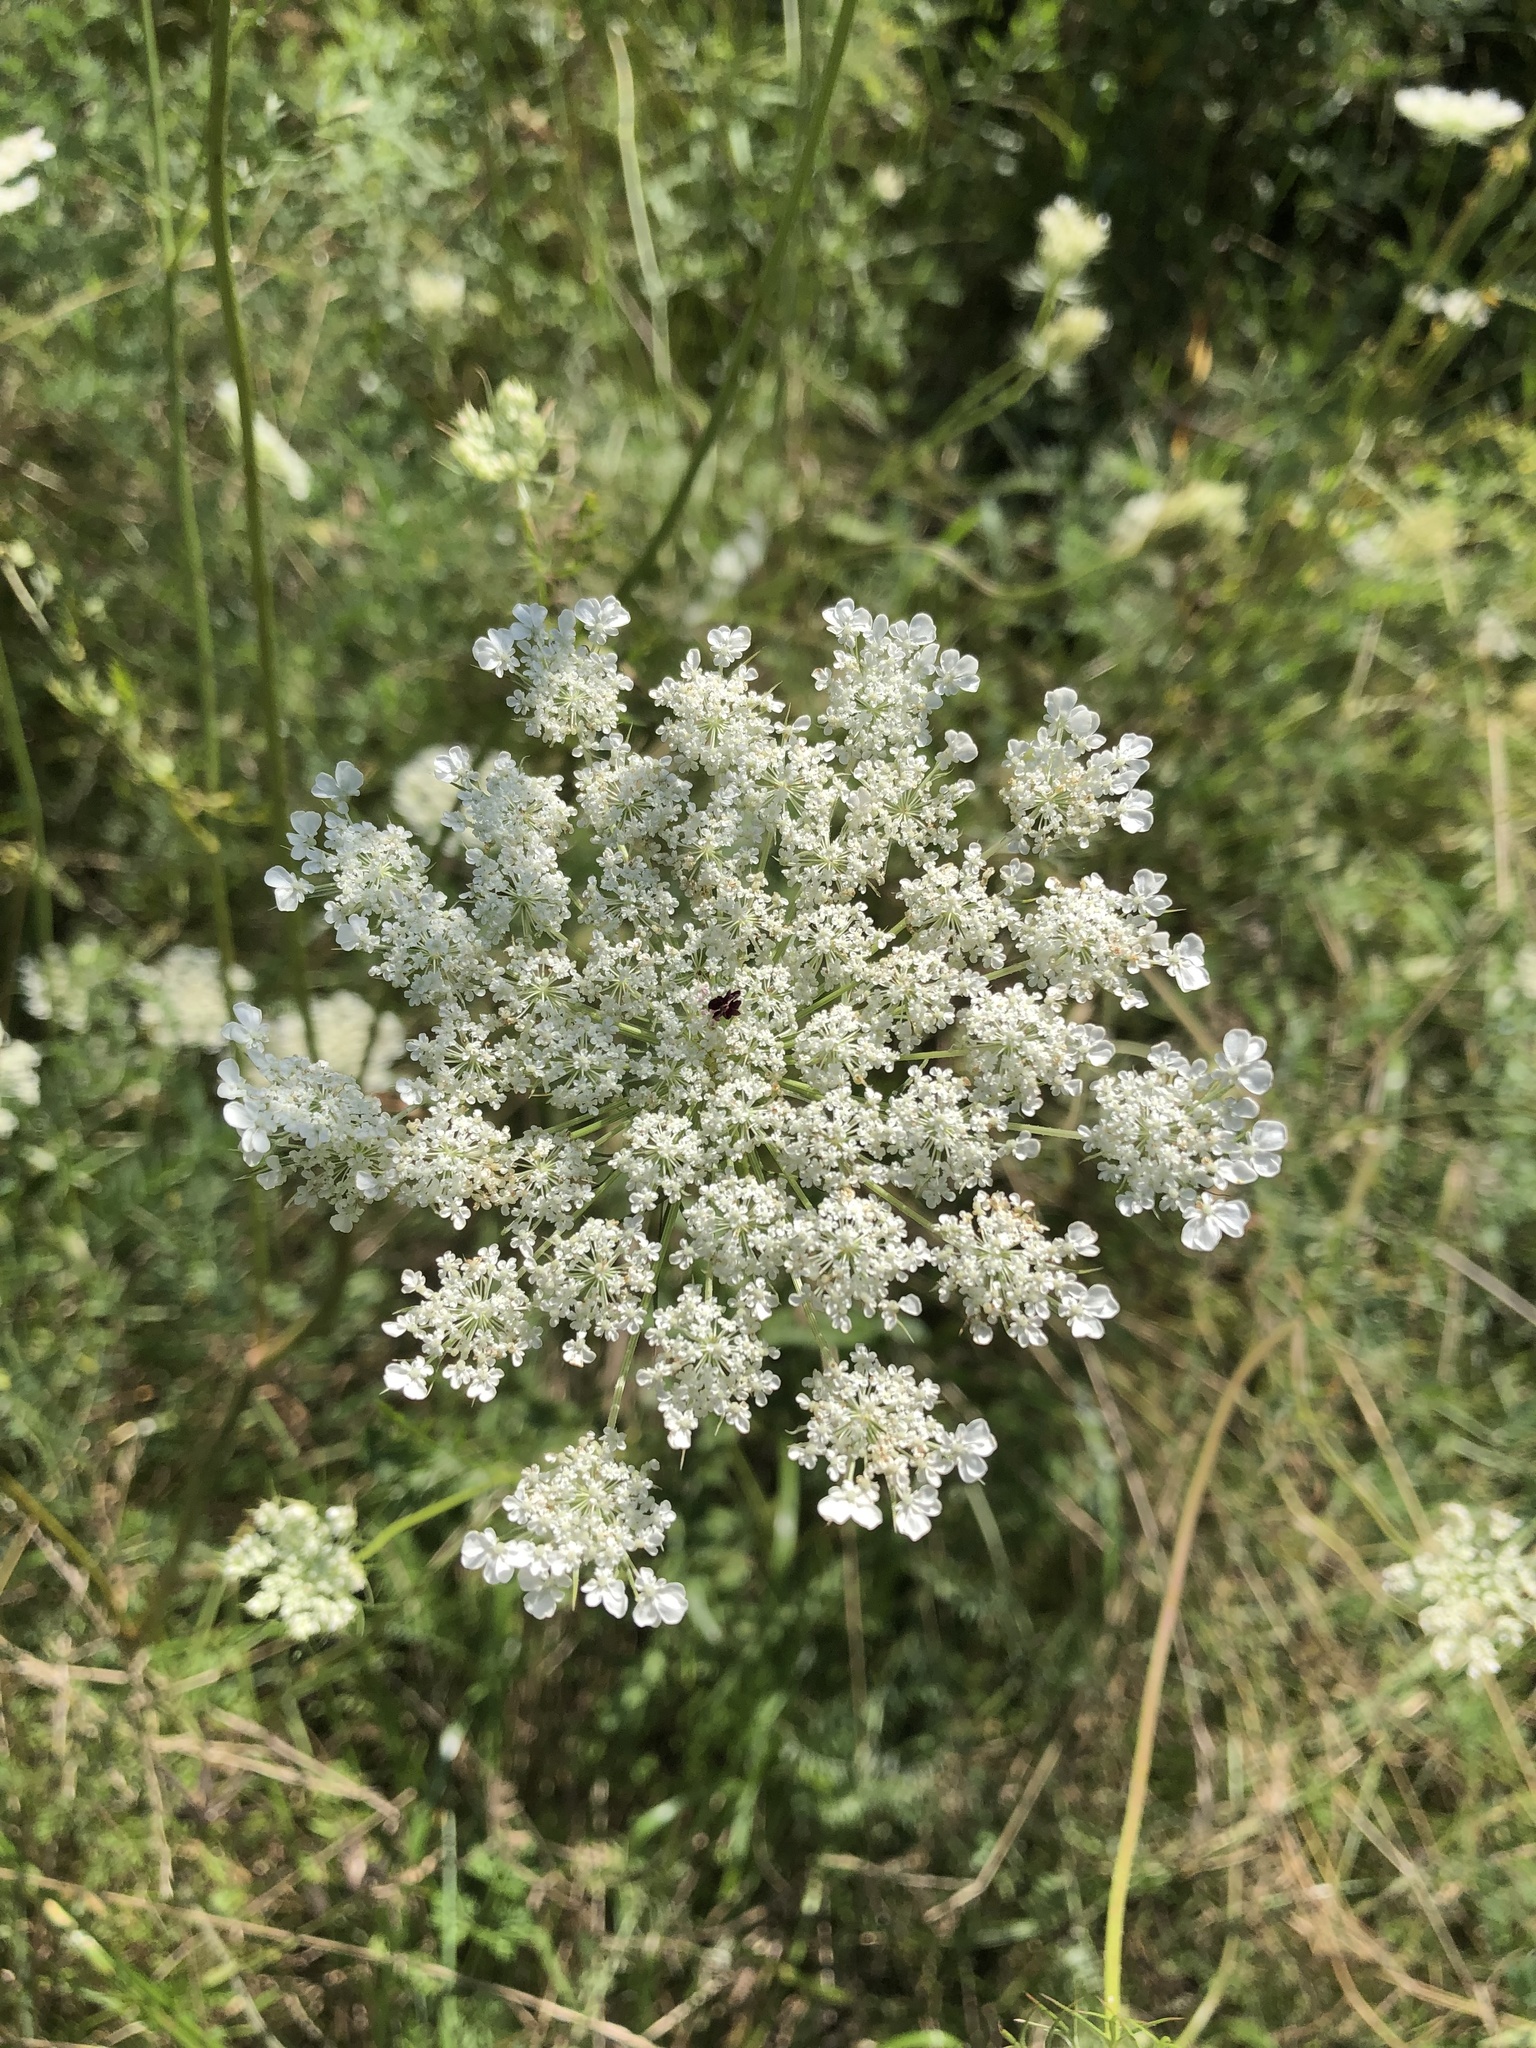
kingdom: Plantae
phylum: Tracheophyta
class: Magnoliopsida
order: Apiales
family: Apiaceae
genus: Daucus
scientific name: Daucus carota
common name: Wild carrot
